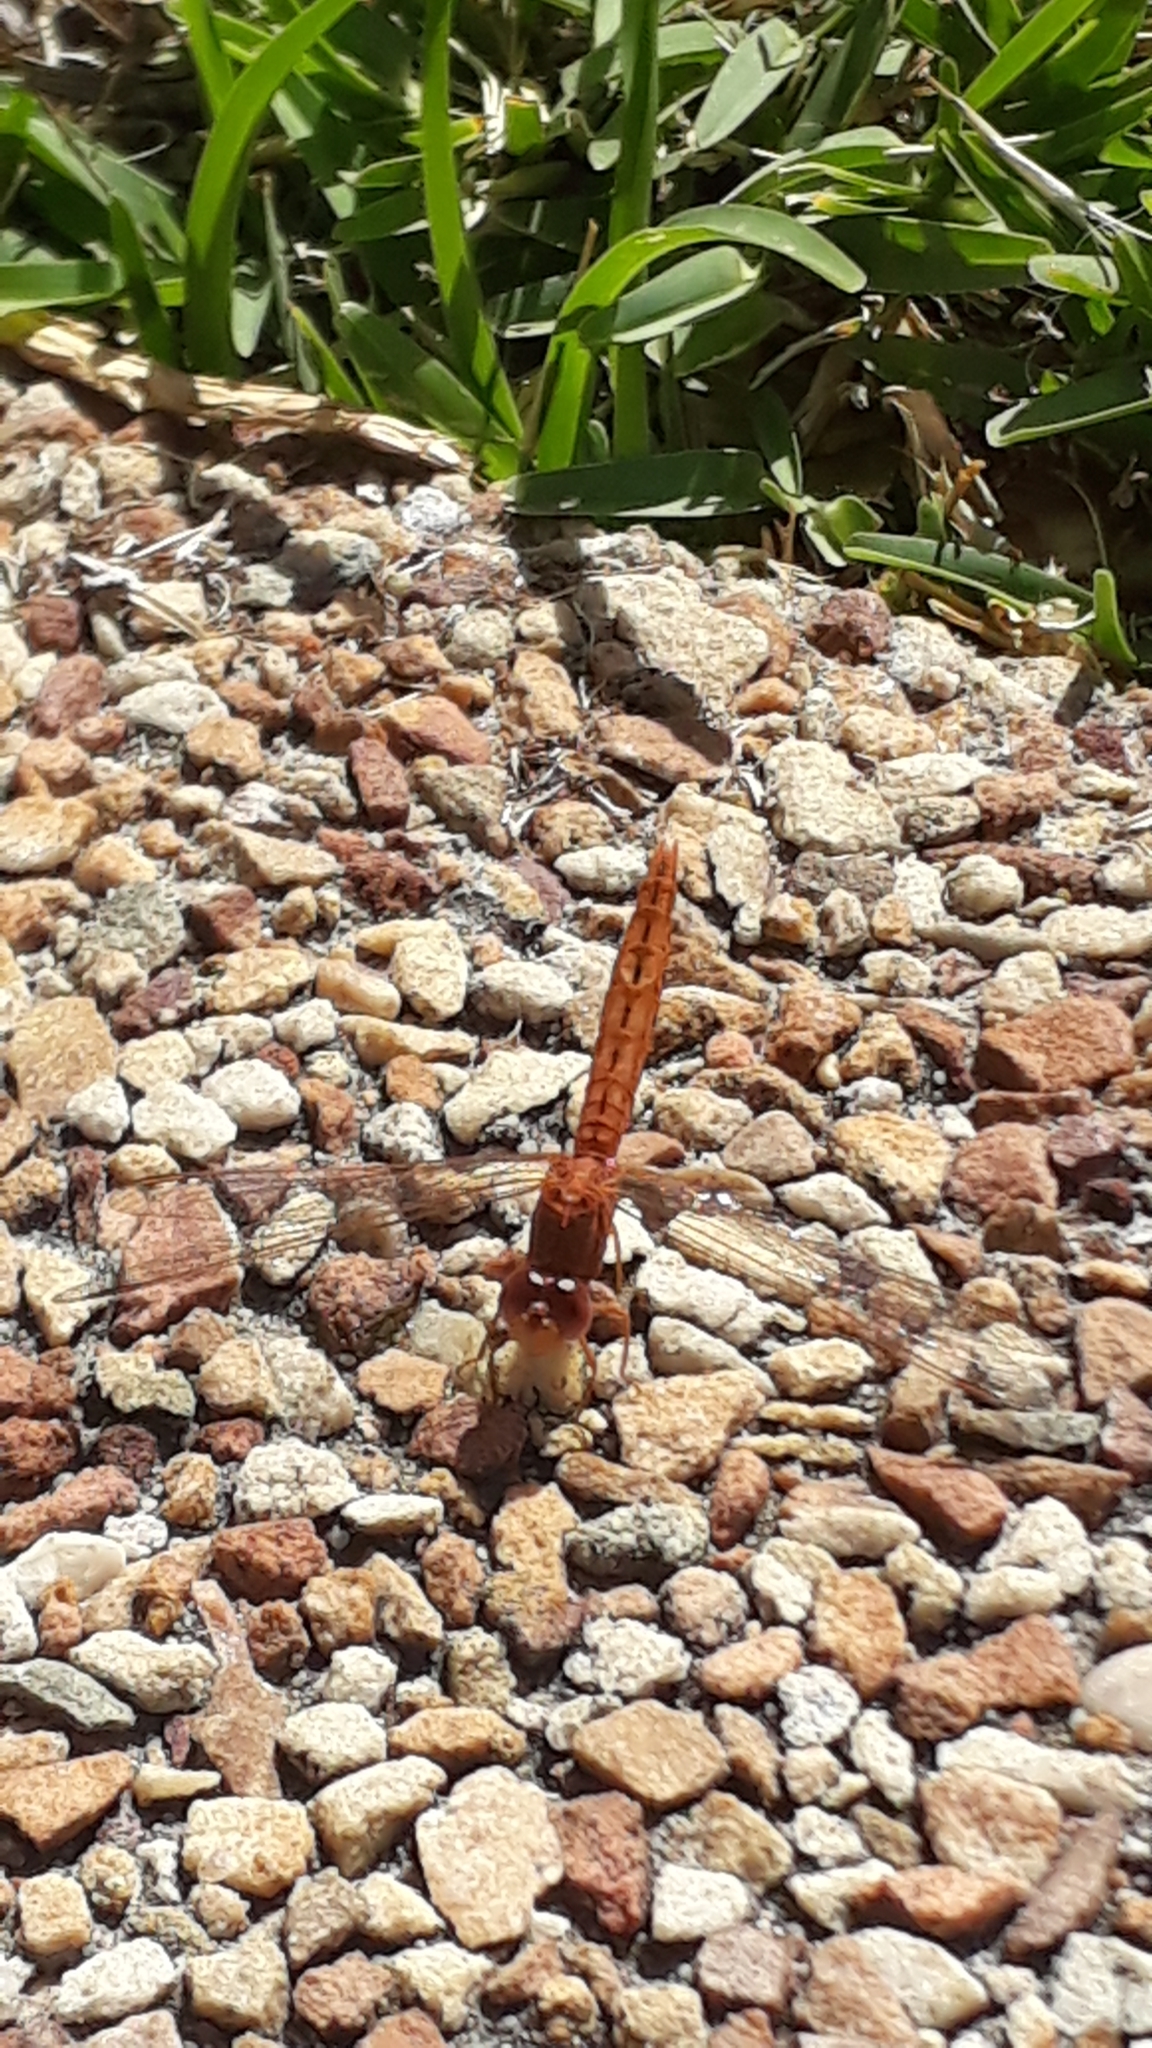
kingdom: Animalia
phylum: Arthropoda
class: Insecta
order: Odonata
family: Libellulidae
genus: Crocothemis
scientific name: Crocothemis sanguinolenta
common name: Little scarlet
